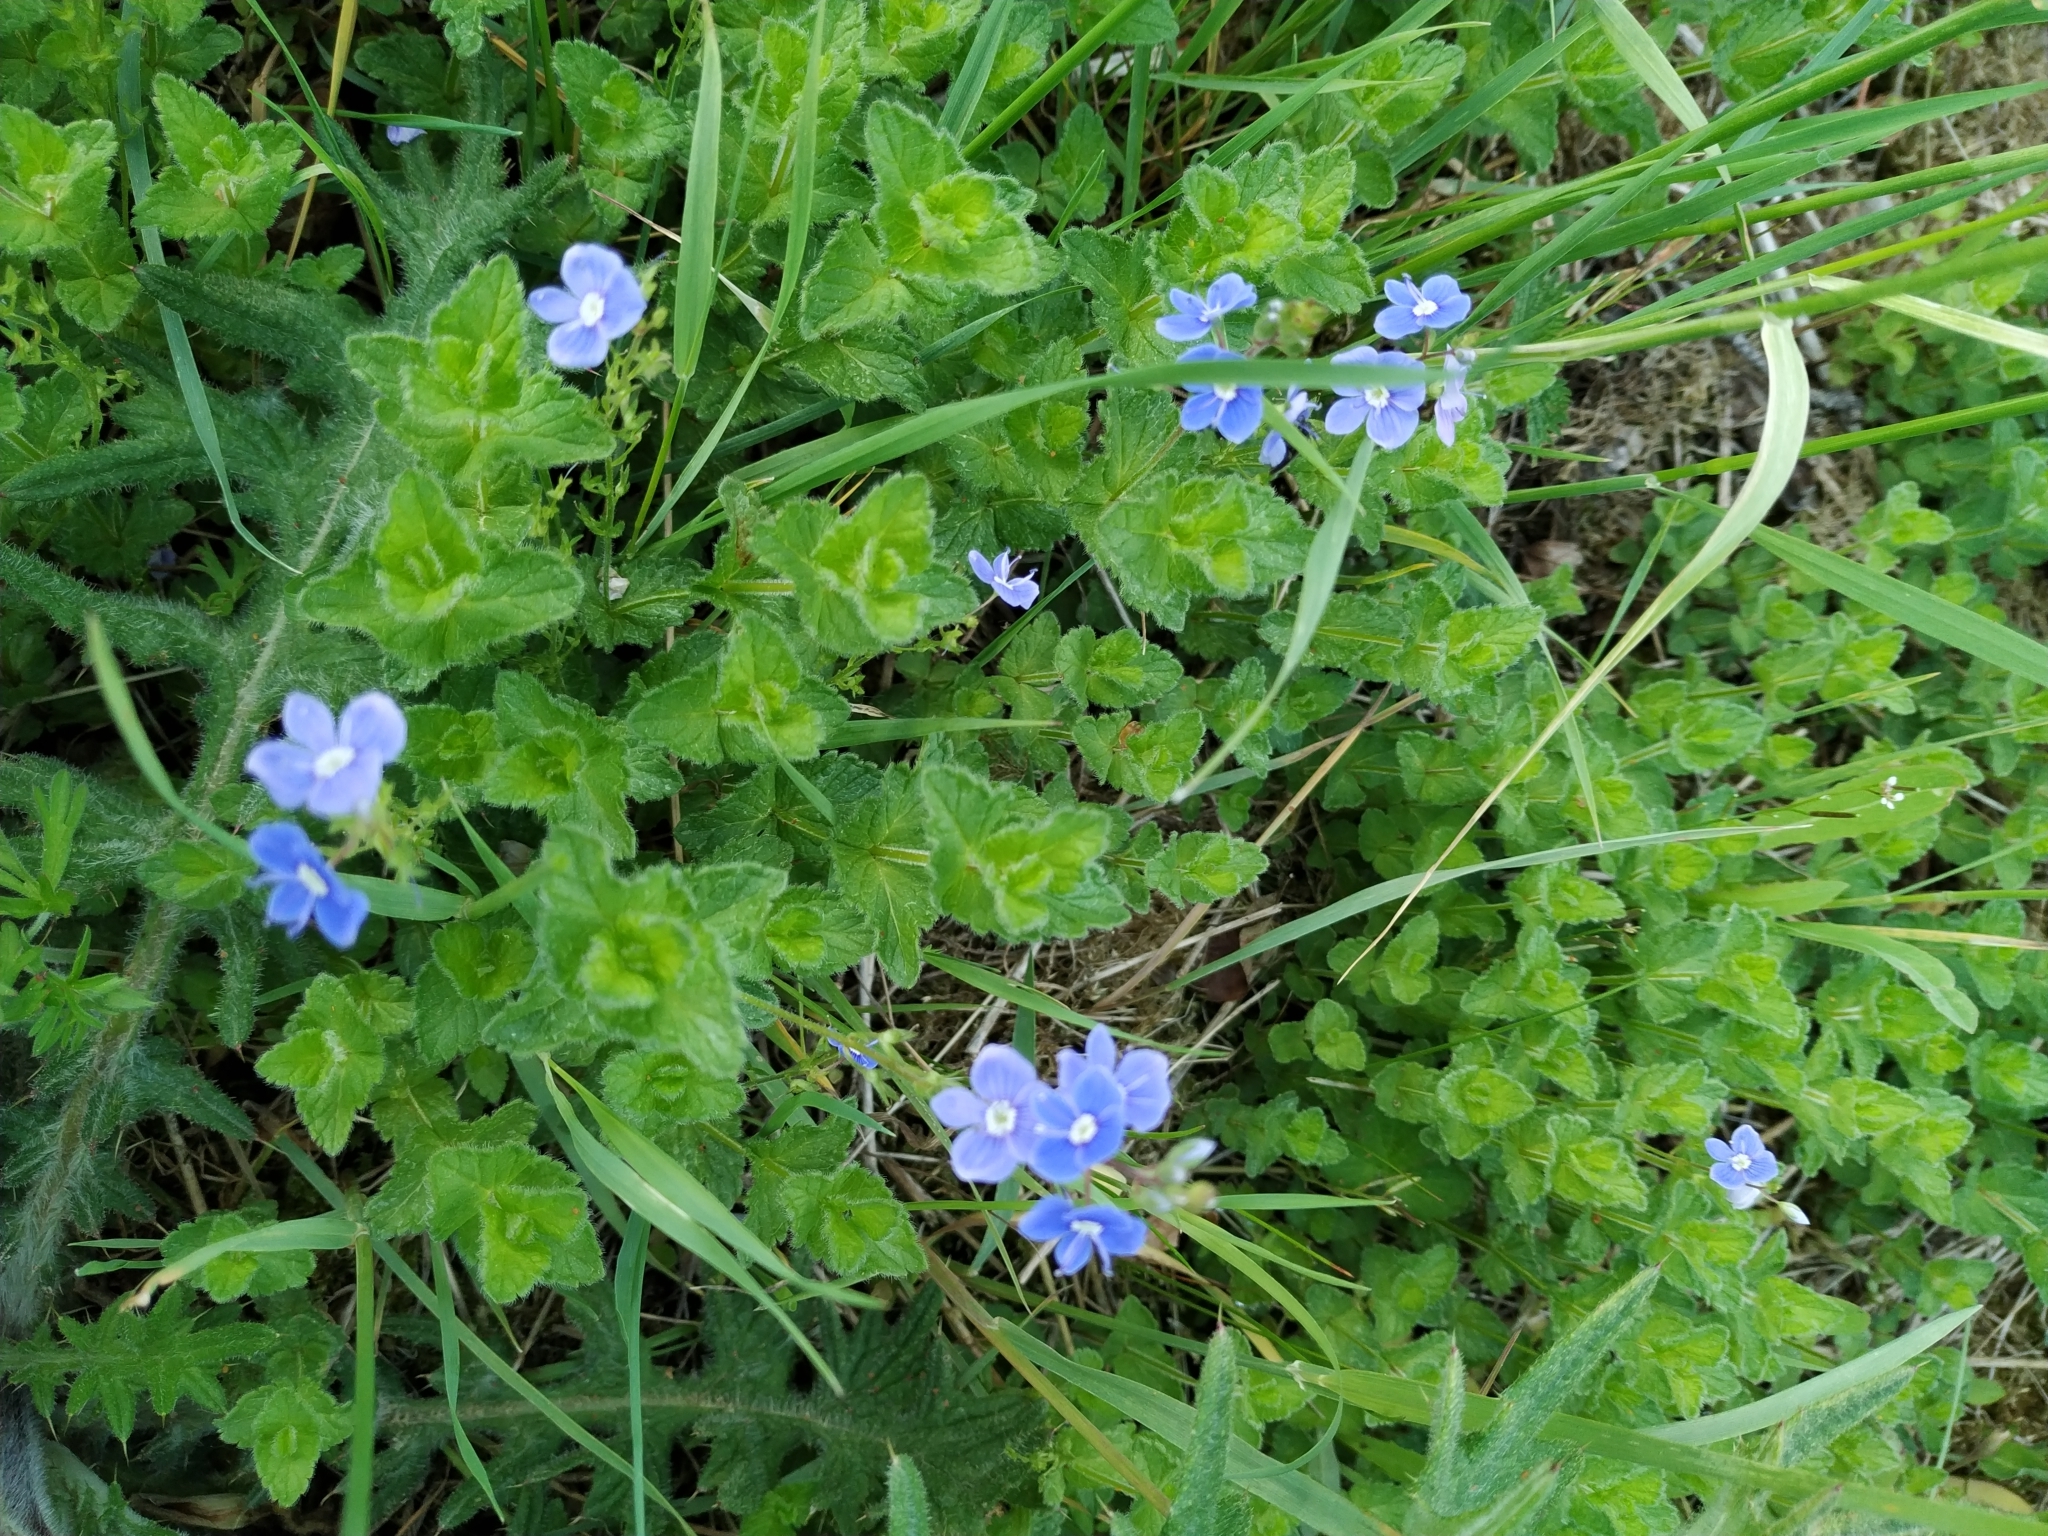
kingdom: Plantae
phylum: Tracheophyta
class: Magnoliopsida
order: Lamiales
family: Plantaginaceae
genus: Veronica
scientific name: Veronica chamaedrys
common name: Germander speedwell
